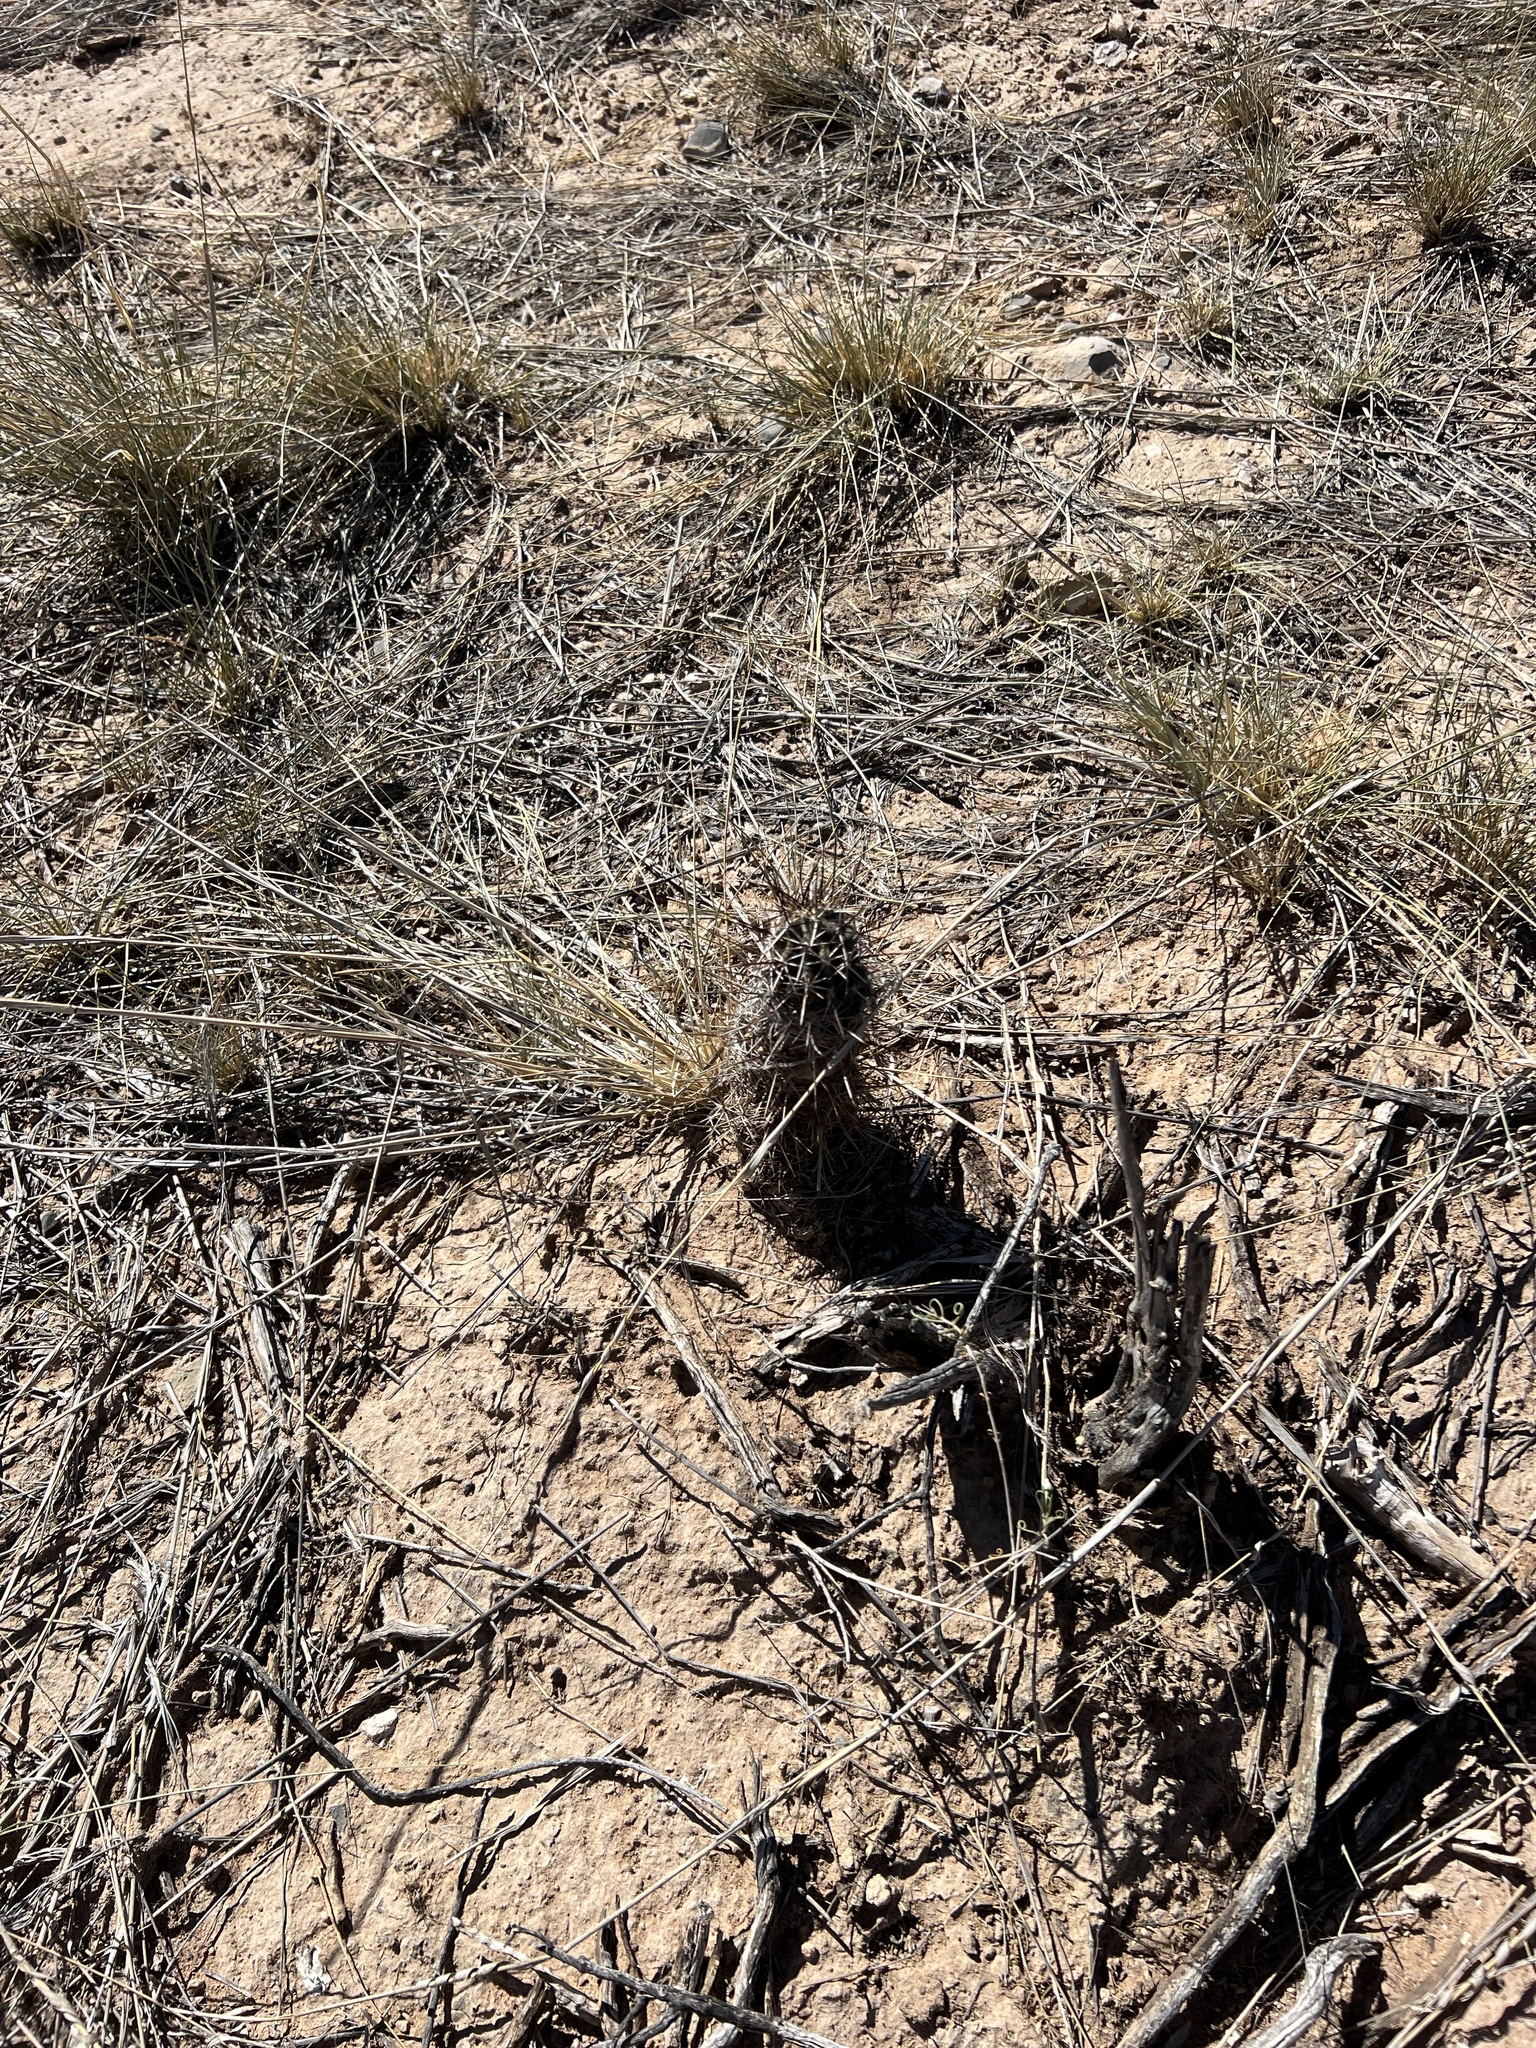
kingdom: Plantae
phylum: Tracheophyta
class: Magnoliopsida
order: Caryophyllales
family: Cactaceae
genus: Echinocereus
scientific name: Echinocereus fendleri
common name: Fendler's hedgehog cactus
